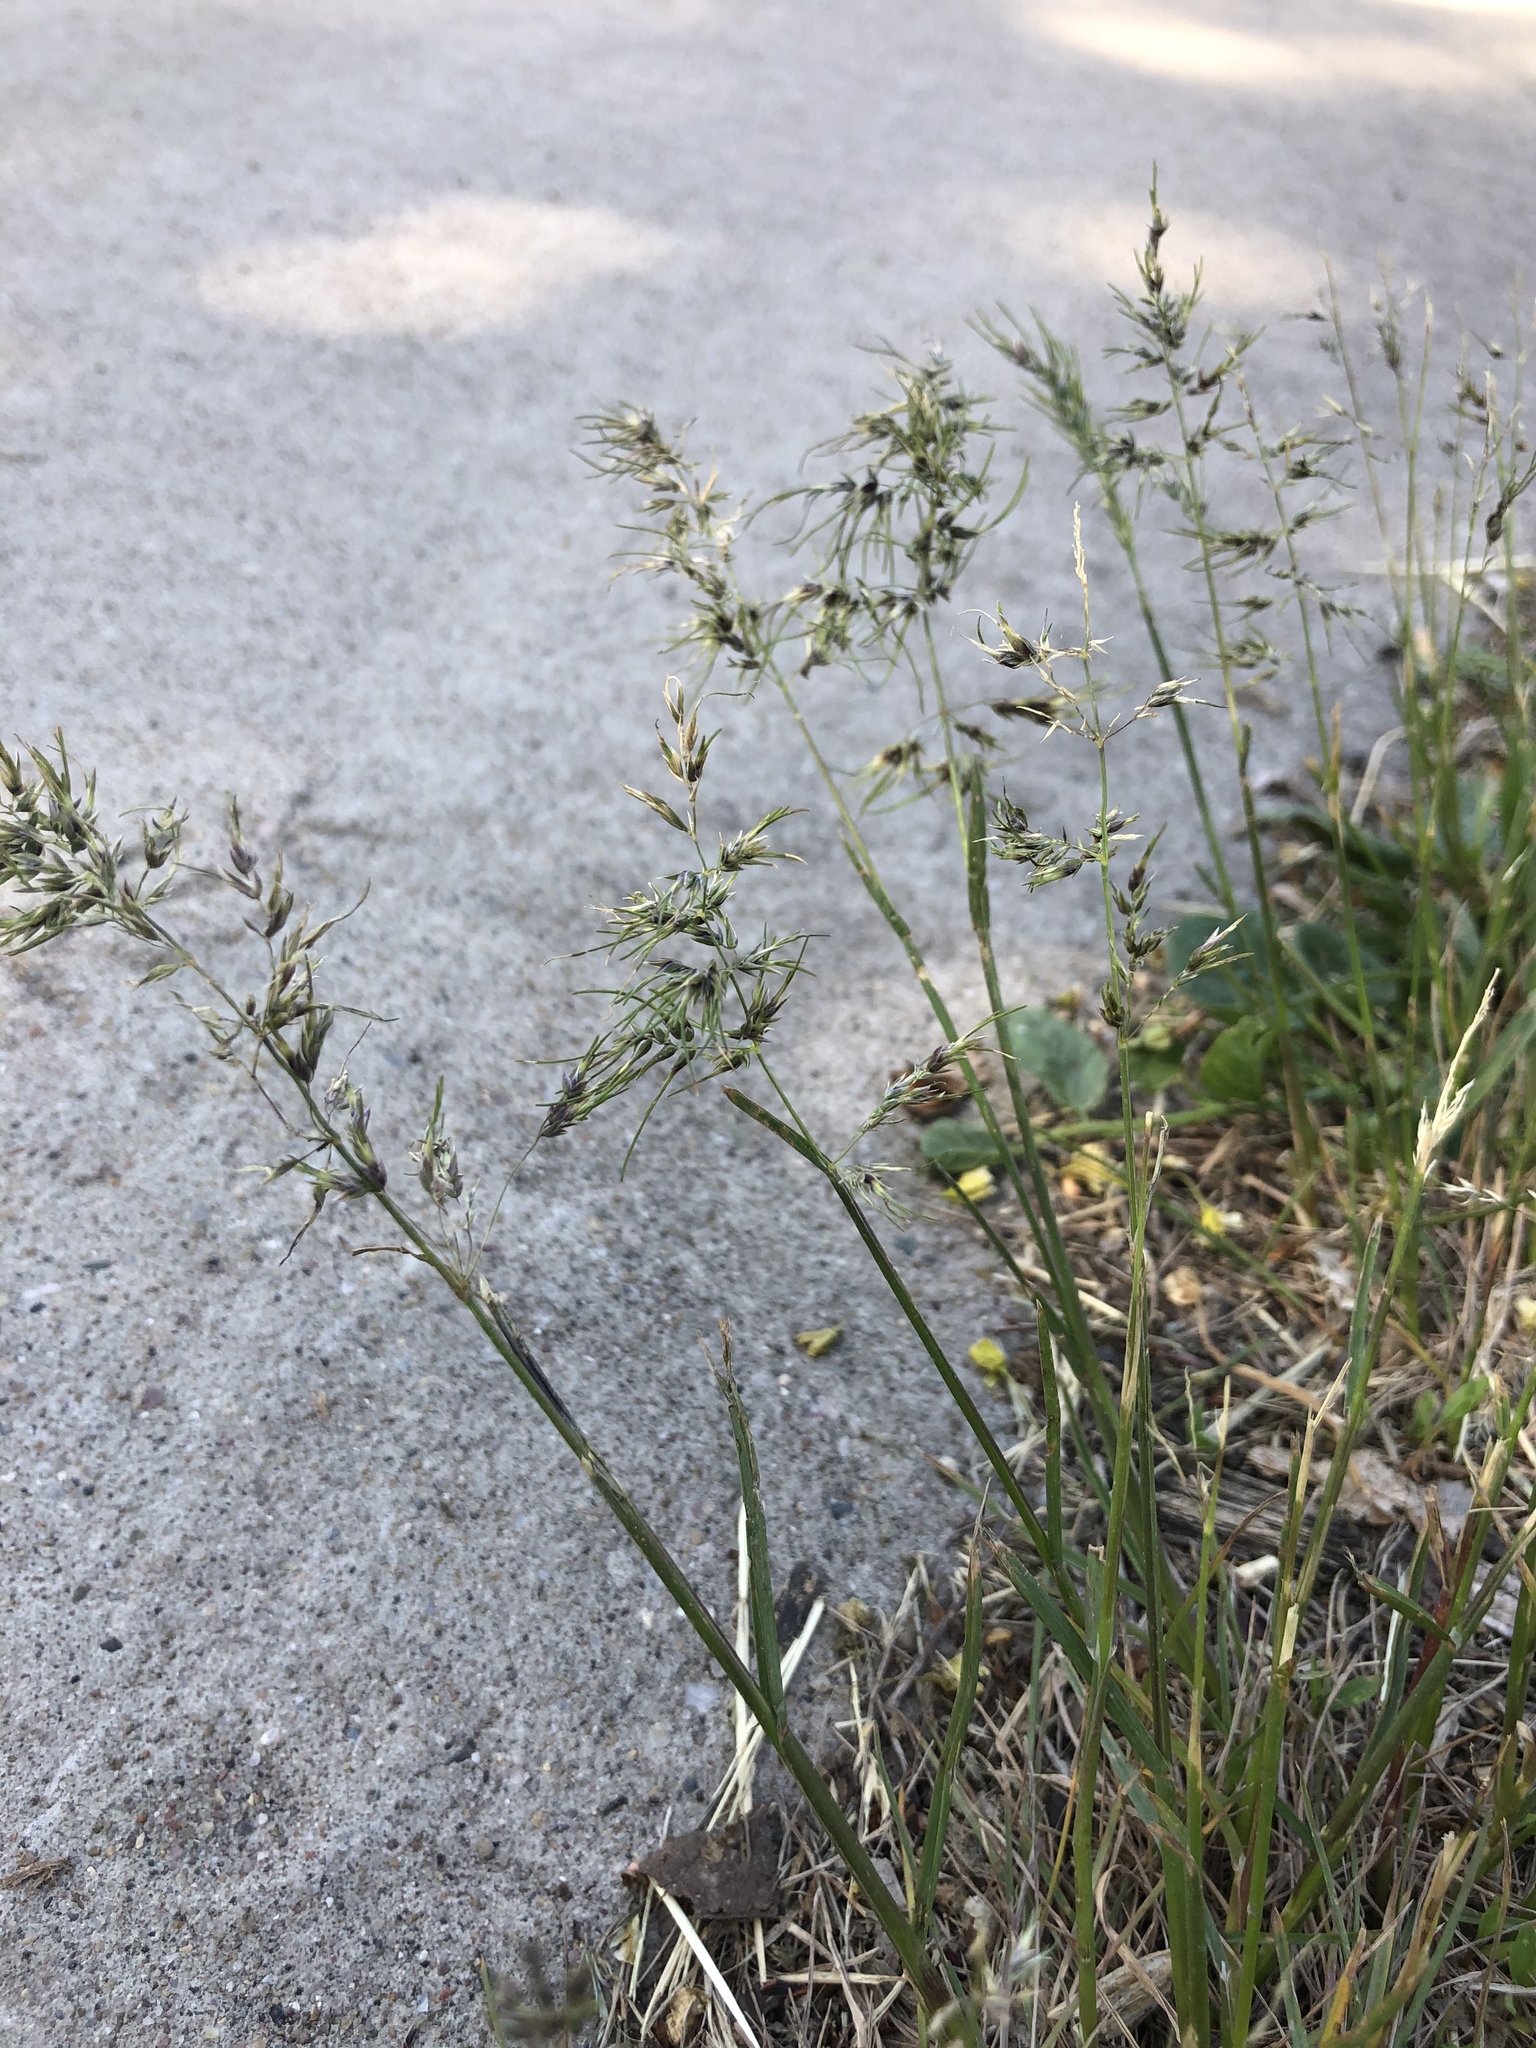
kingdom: Plantae
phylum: Tracheophyta
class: Liliopsida
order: Poales
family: Poaceae
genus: Poa
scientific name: Poa bulbosa
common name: Bulbous bluegrass
